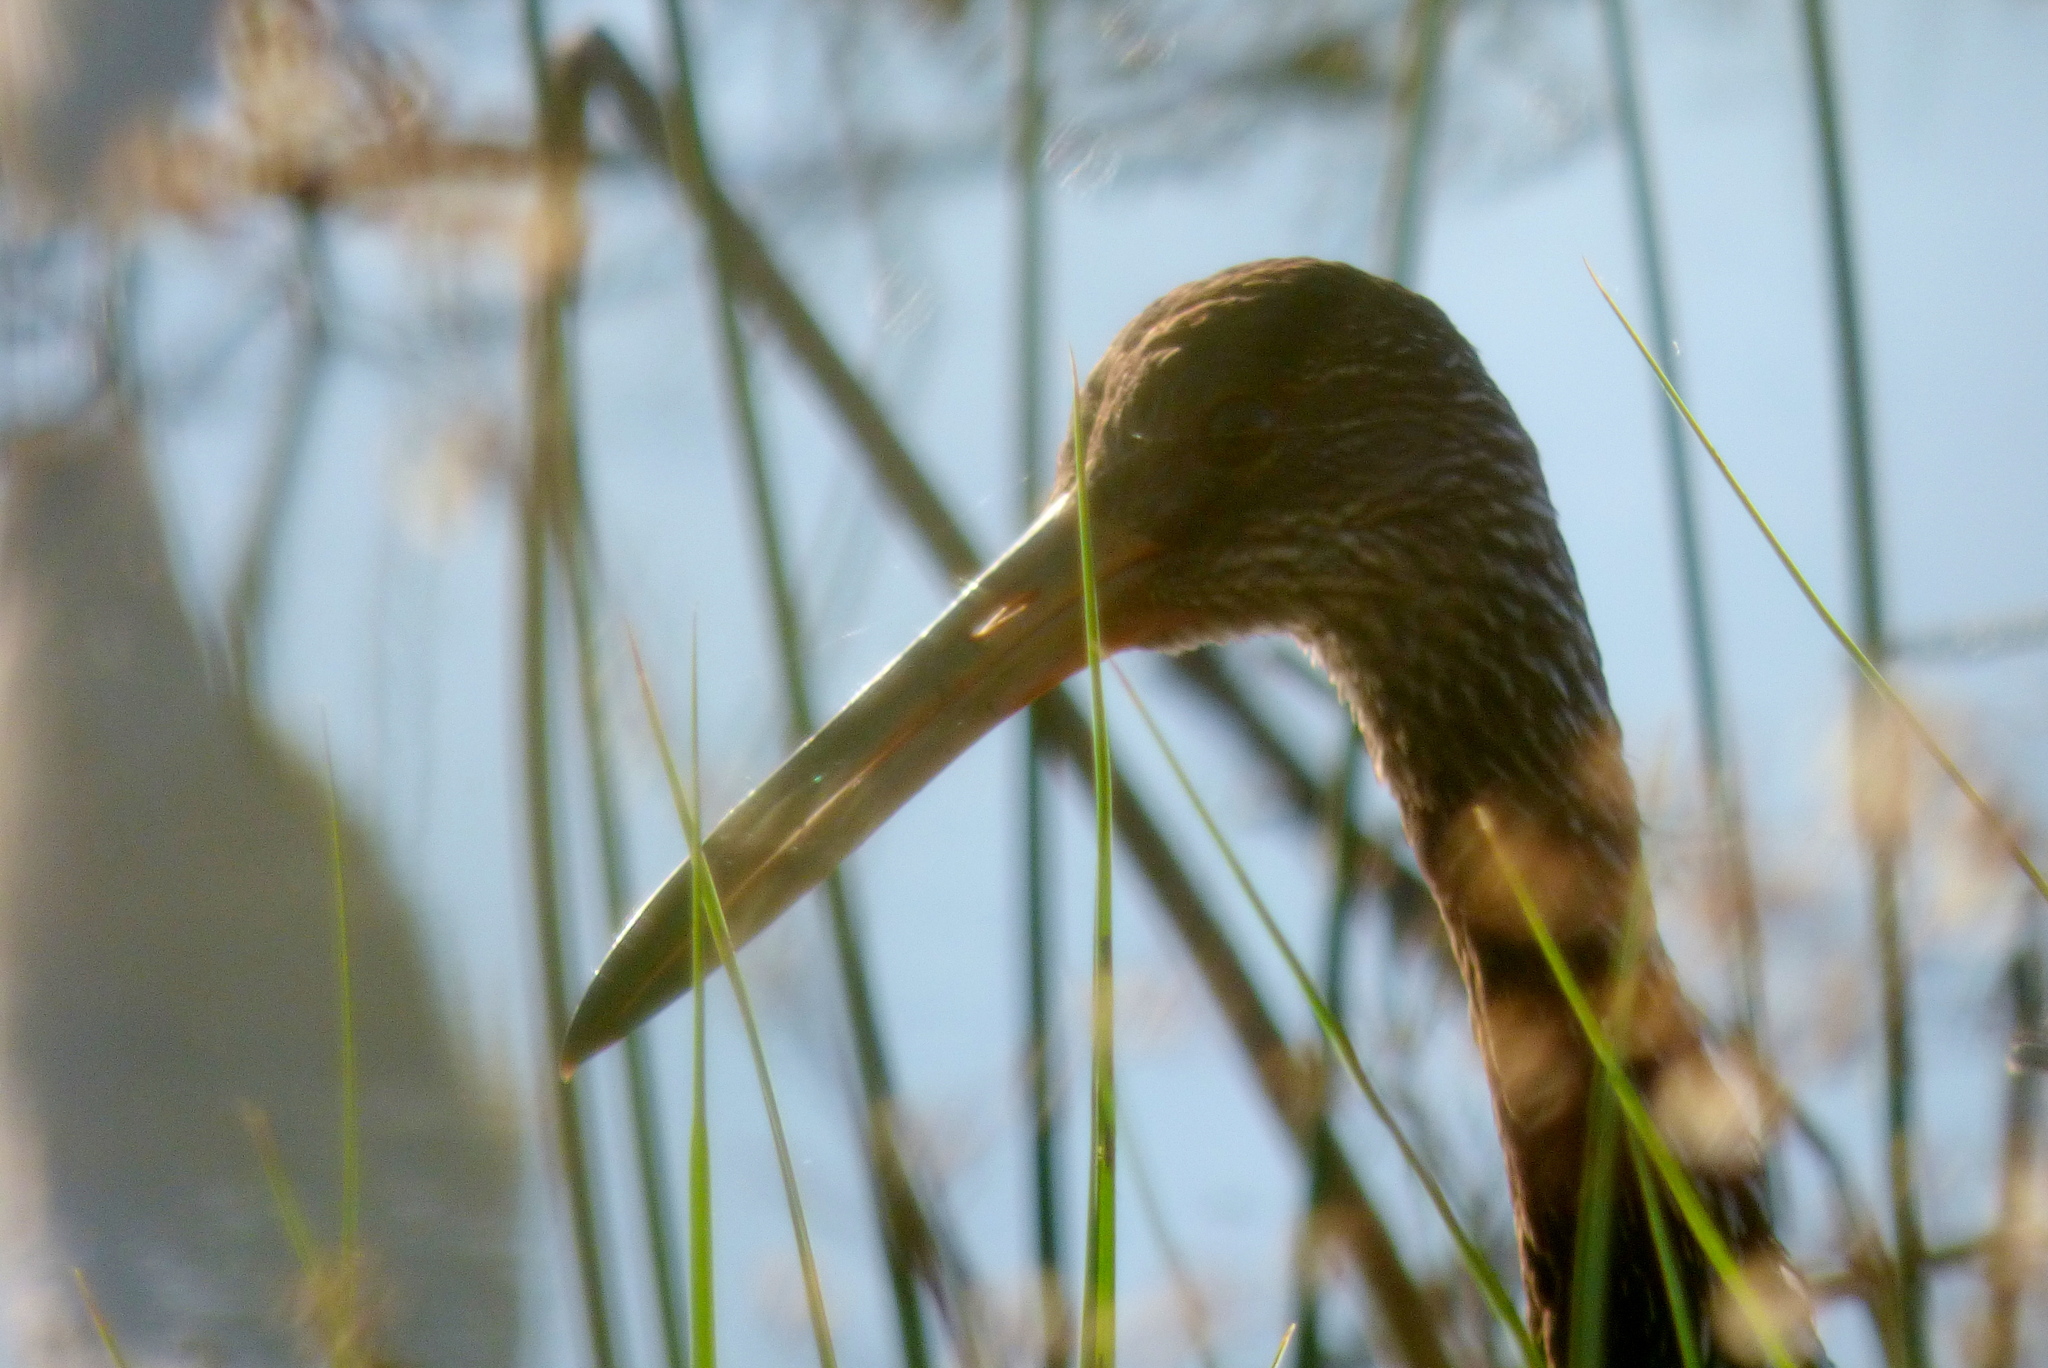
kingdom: Animalia
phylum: Chordata
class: Aves
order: Gruiformes
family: Aramidae
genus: Aramus
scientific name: Aramus guarauna
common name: Limpkin
